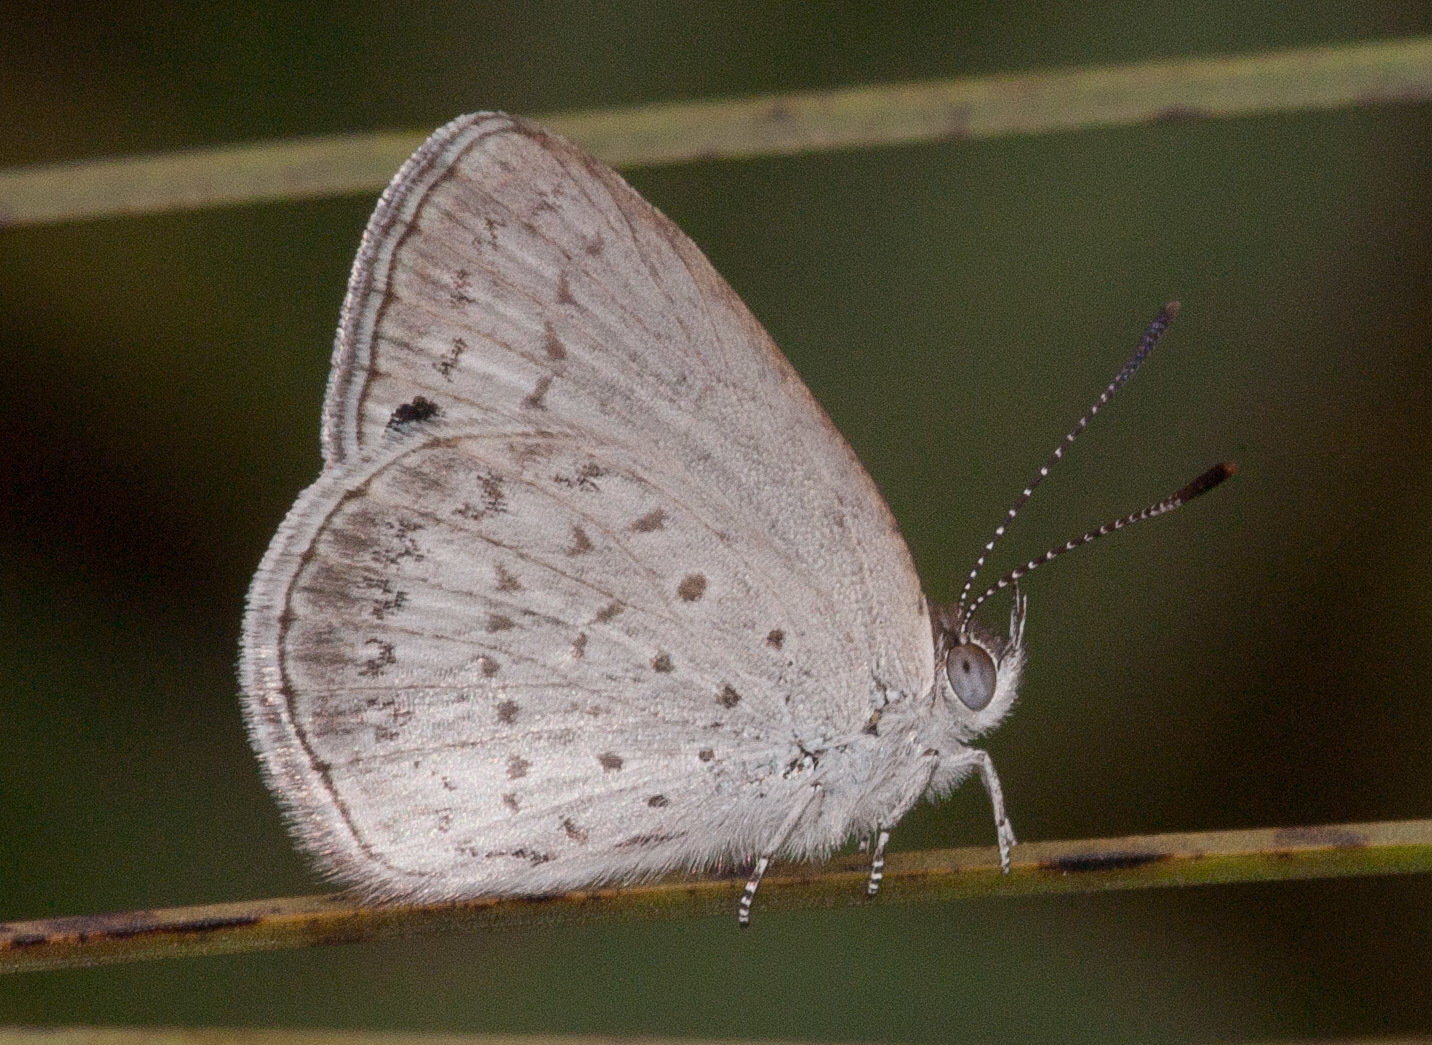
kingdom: Animalia
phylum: Arthropoda
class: Insecta
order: Lepidoptera
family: Lycaenidae
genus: Candalides
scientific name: Candalides
